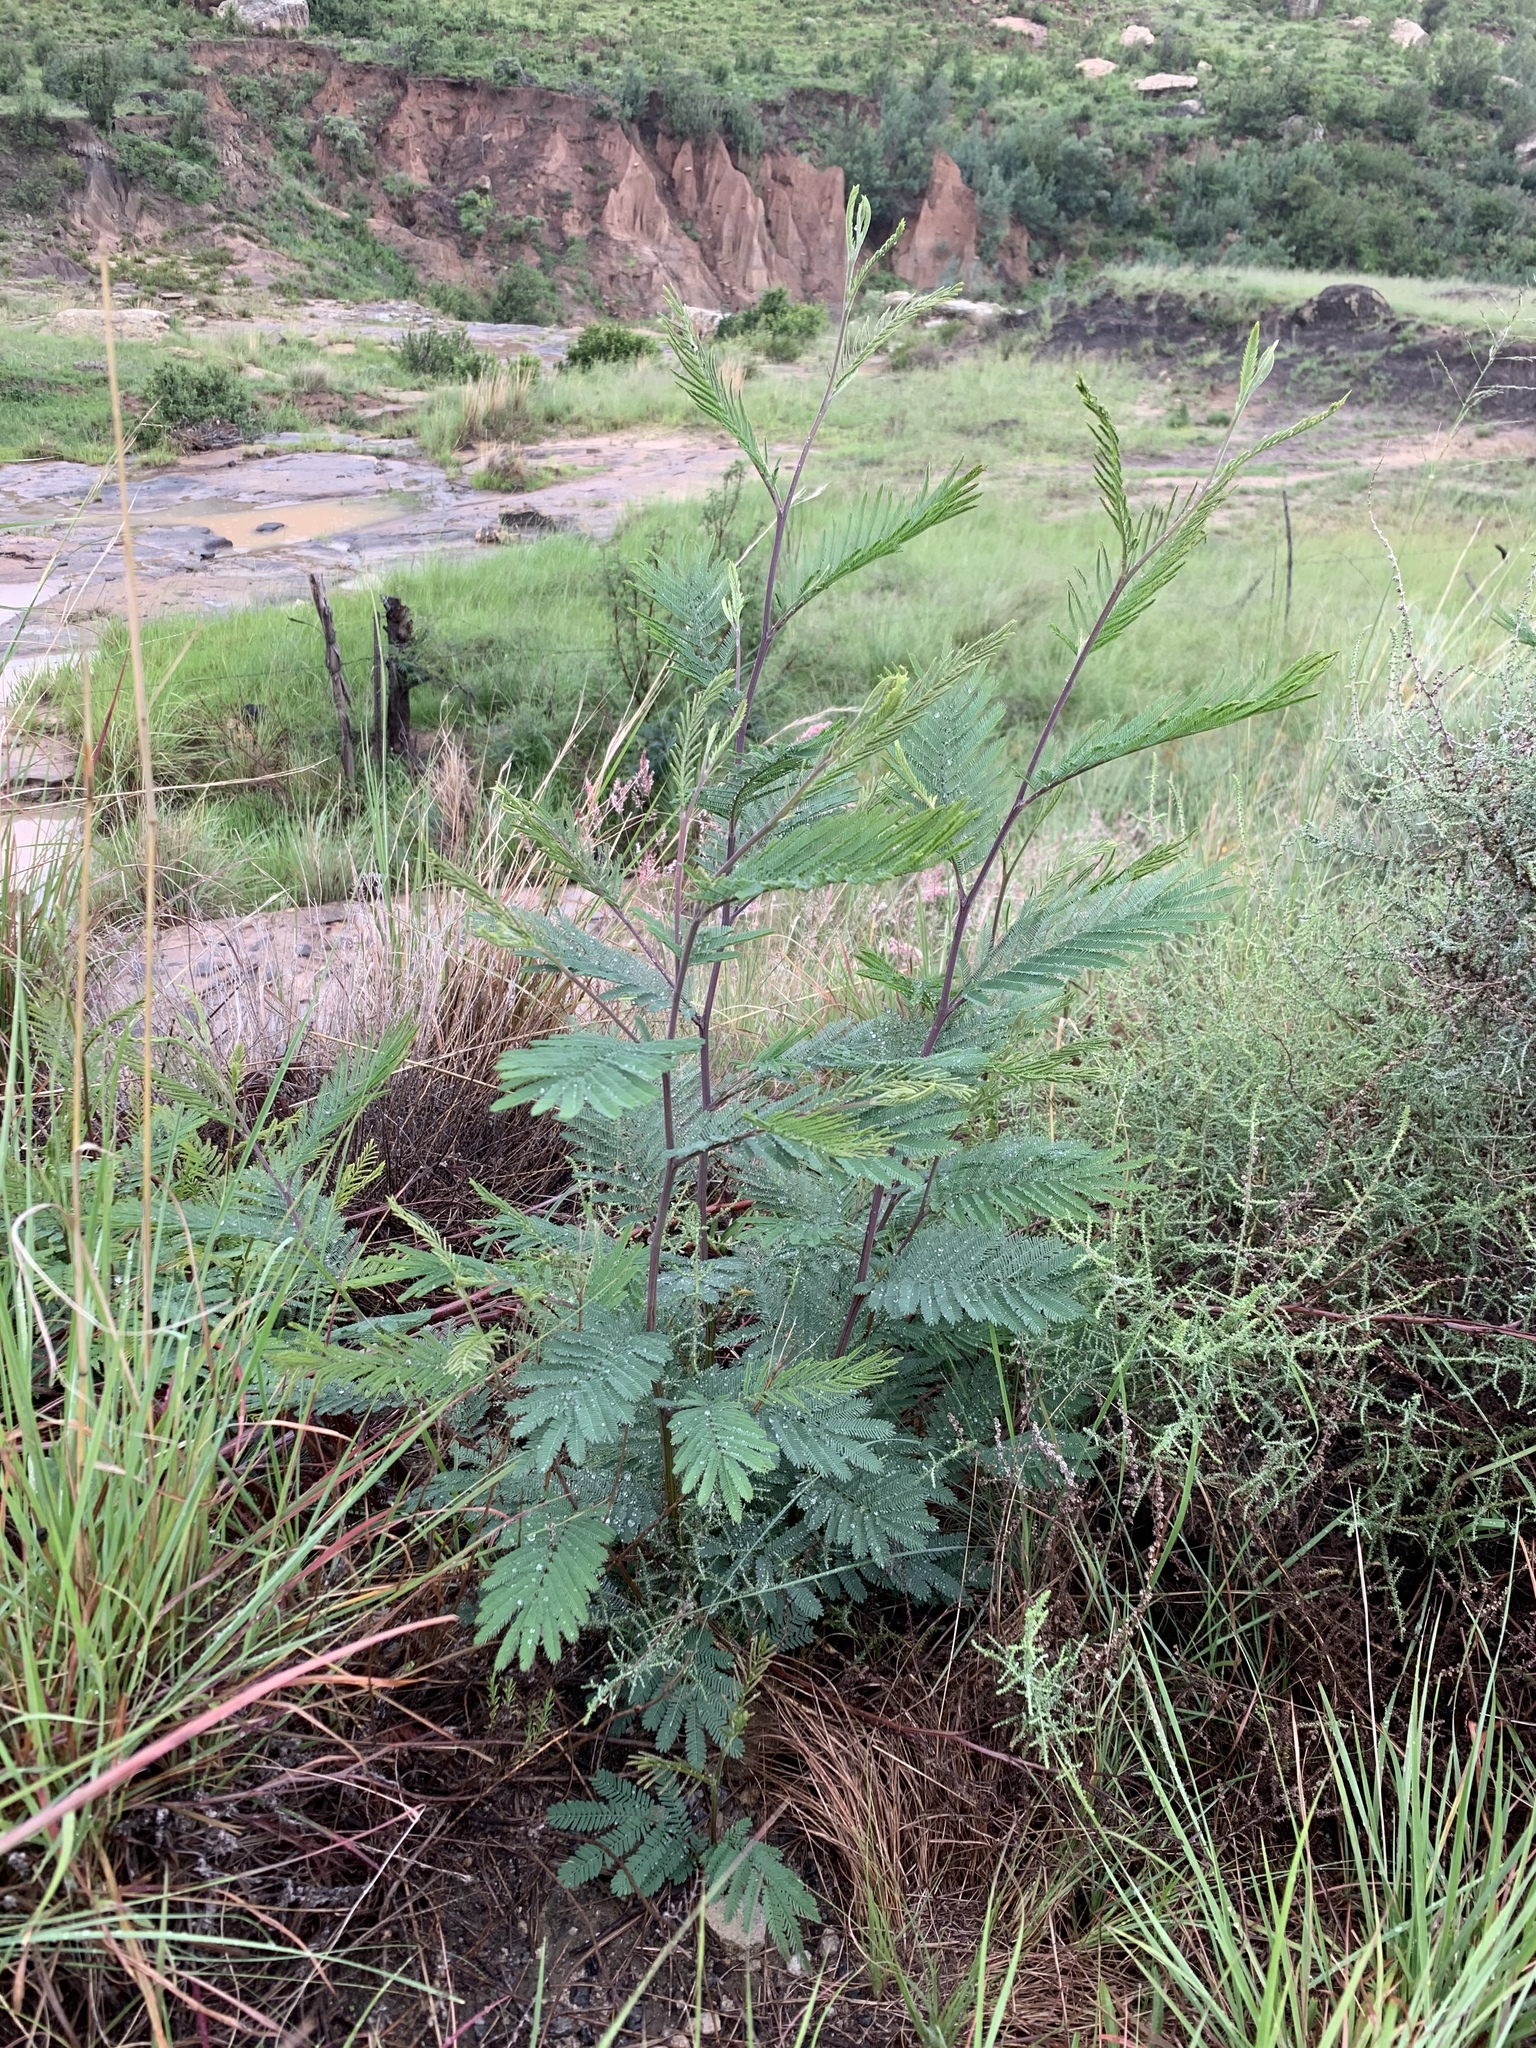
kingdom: Plantae
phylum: Tracheophyta
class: Magnoliopsida
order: Fabales
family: Fabaceae
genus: Acacia
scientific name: Acacia dealbata
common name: Silver wattle
